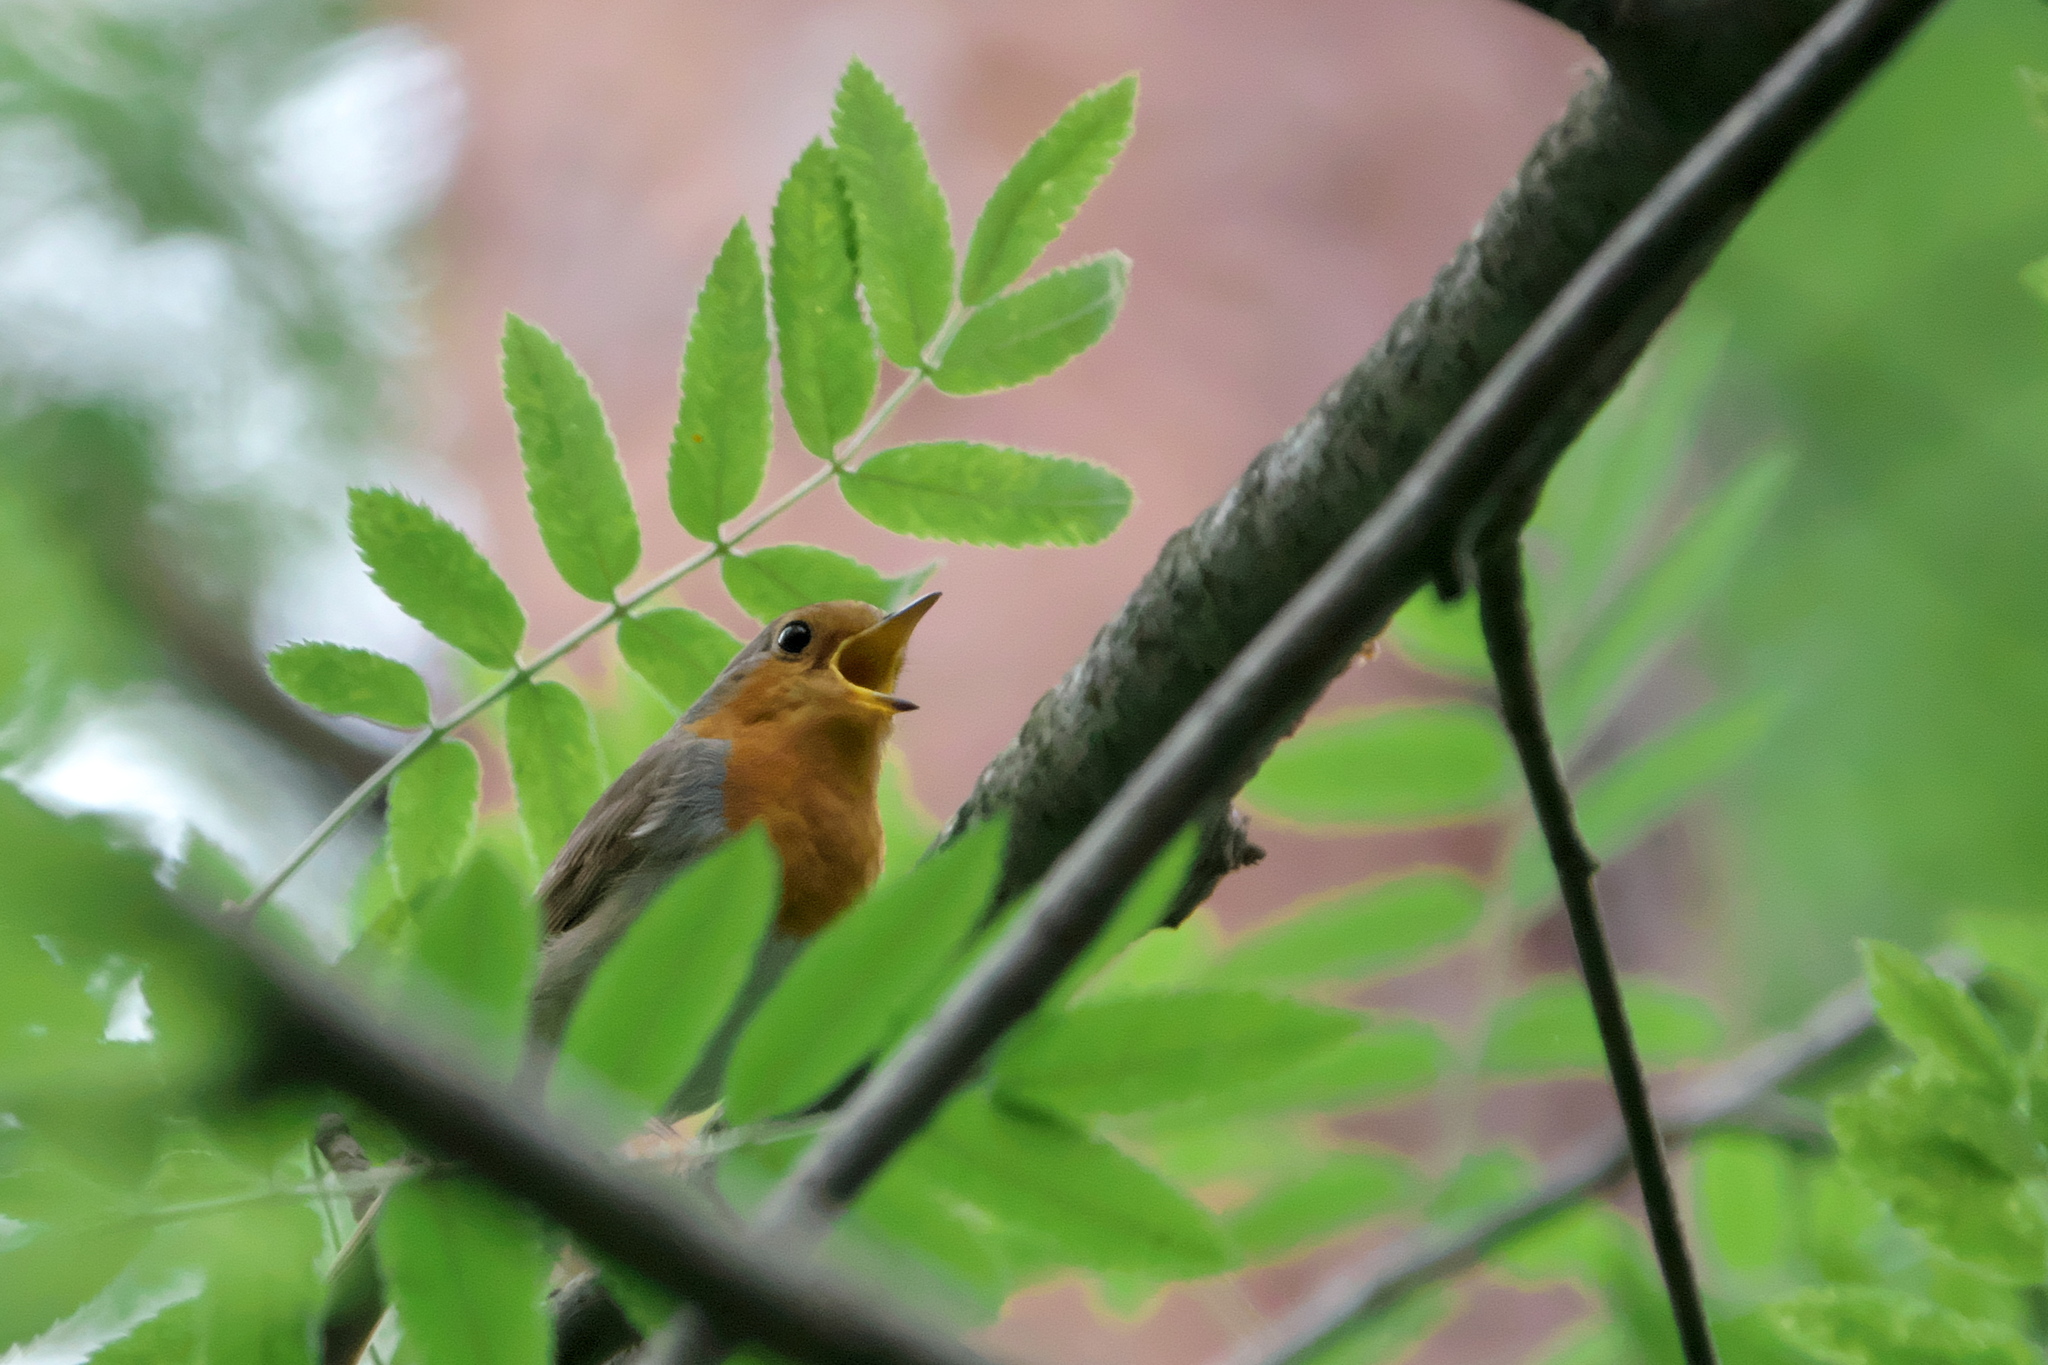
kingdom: Animalia
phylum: Chordata
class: Aves
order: Passeriformes
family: Muscicapidae
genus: Erithacus
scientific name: Erithacus rubecula
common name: European robin
